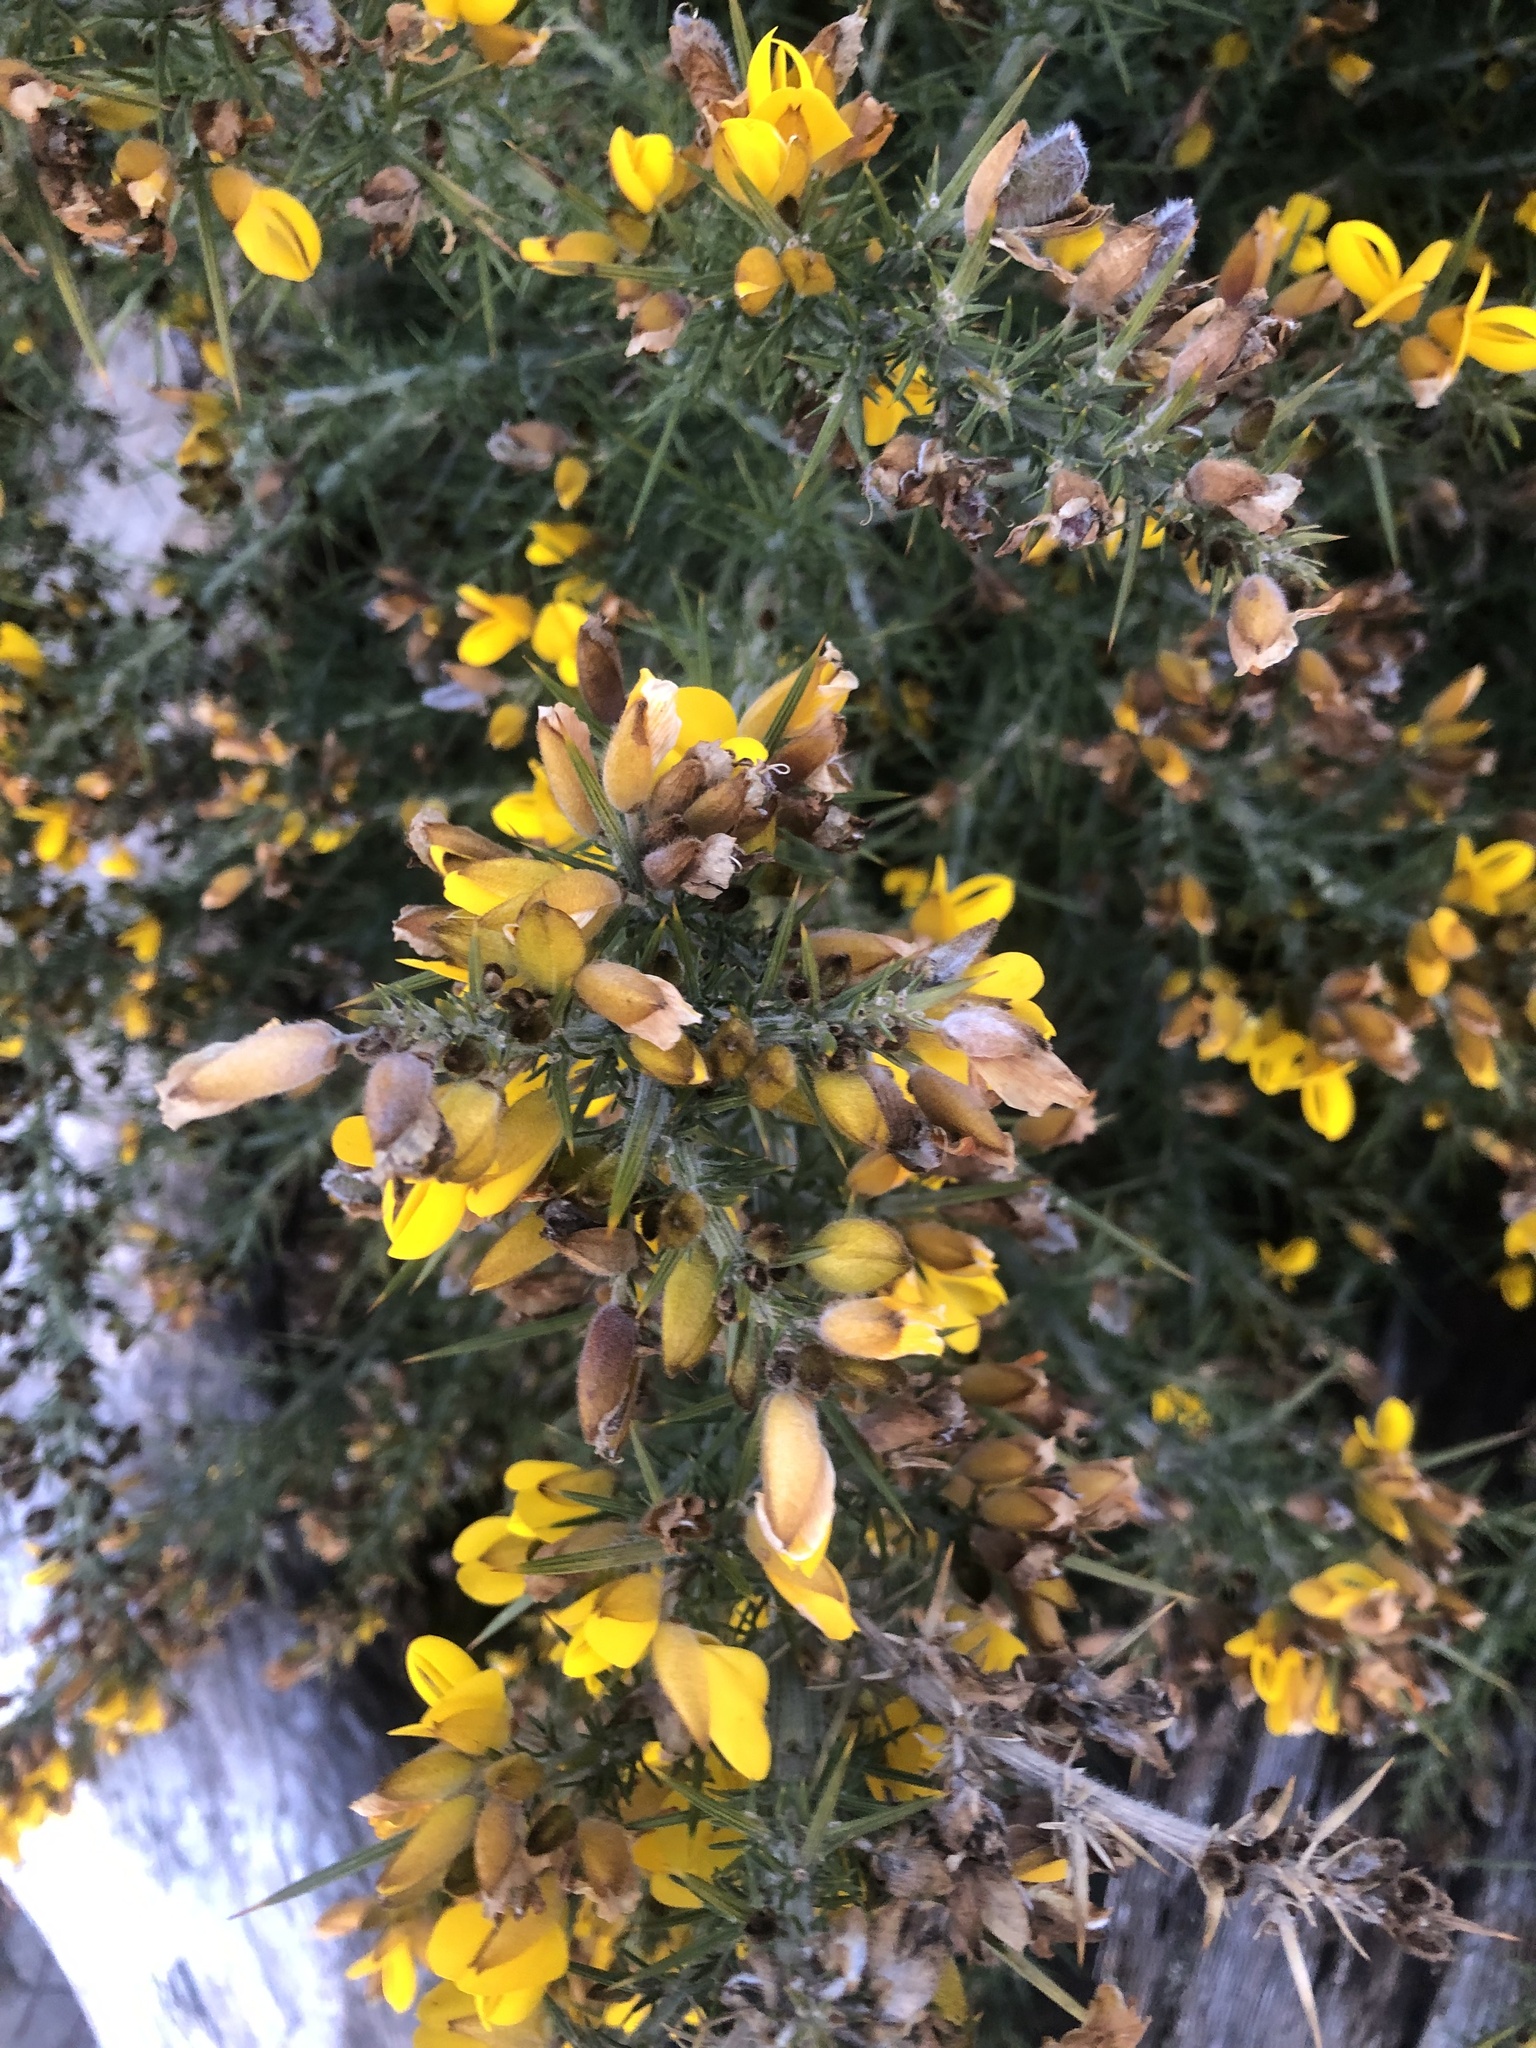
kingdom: Plantae
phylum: Tracheophyta
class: Magnoliopsida
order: Fabales
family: Fabaceae
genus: Ulex
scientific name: Ulex europaeus
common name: Common gorse
